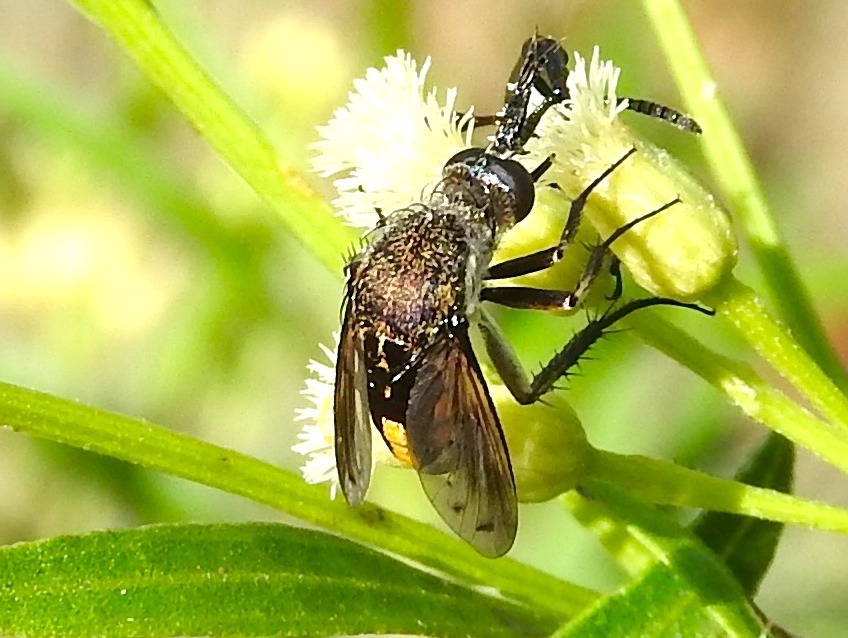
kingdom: Animalia
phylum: Arthropoda
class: Insecta
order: Diptera
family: Bombyliidae
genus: Toxophora
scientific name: Toxophora
